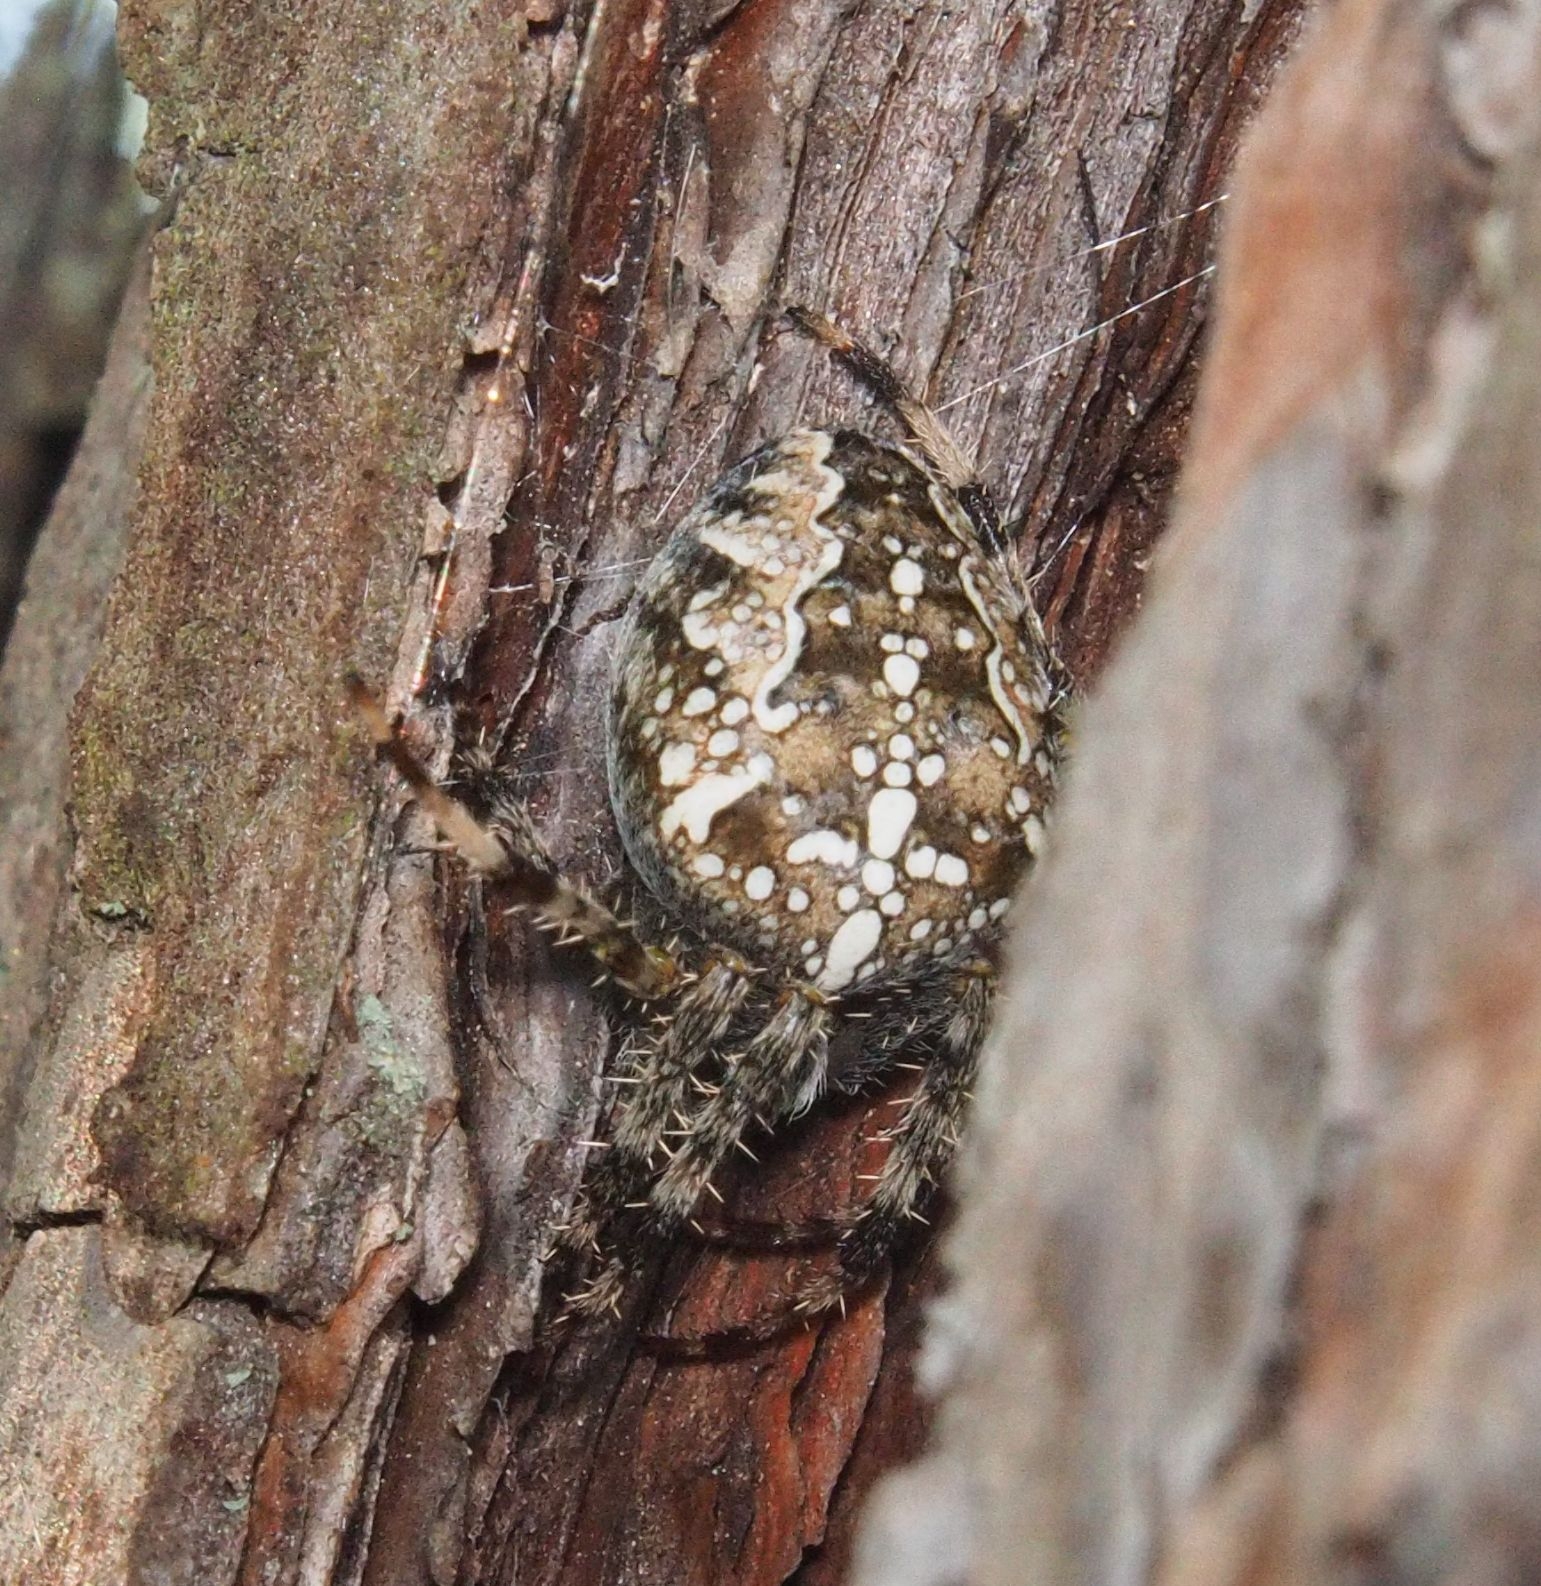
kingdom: Animalia
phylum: Arthropoda
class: Arachnida
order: Araneae
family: Araneidae
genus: Araneus
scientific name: Araneus diadematus
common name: Cross orbweaver
